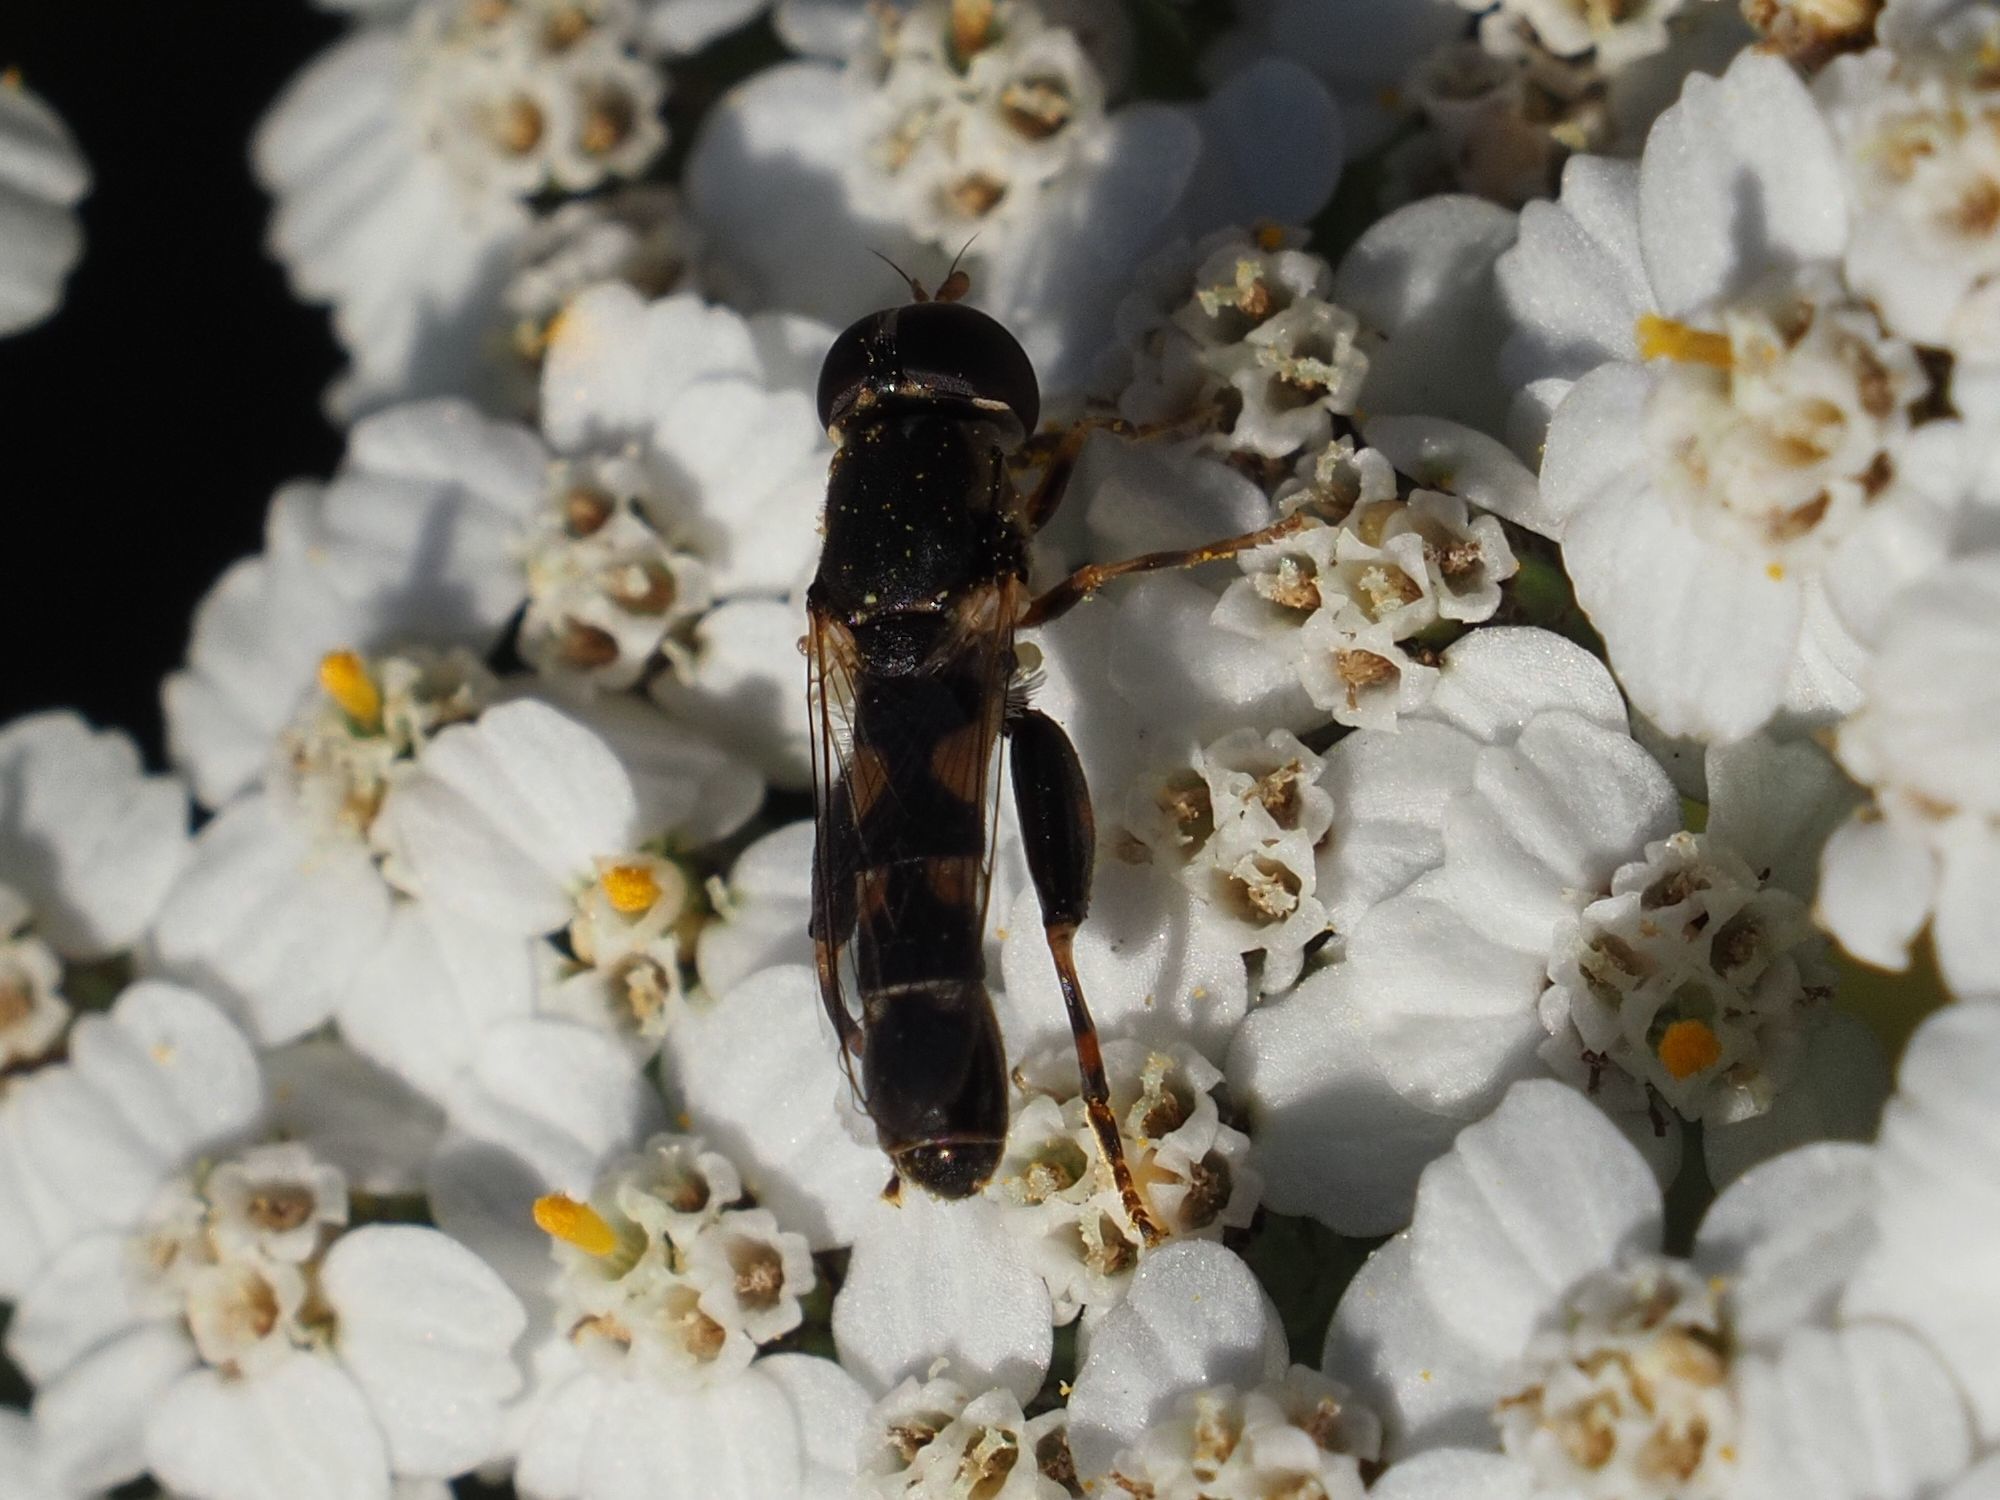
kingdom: Animalia
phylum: Arthropoda
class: Insecta
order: Diptera
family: Syrphidae
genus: Syritta
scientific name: Syritta pipiens
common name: Hover fly
